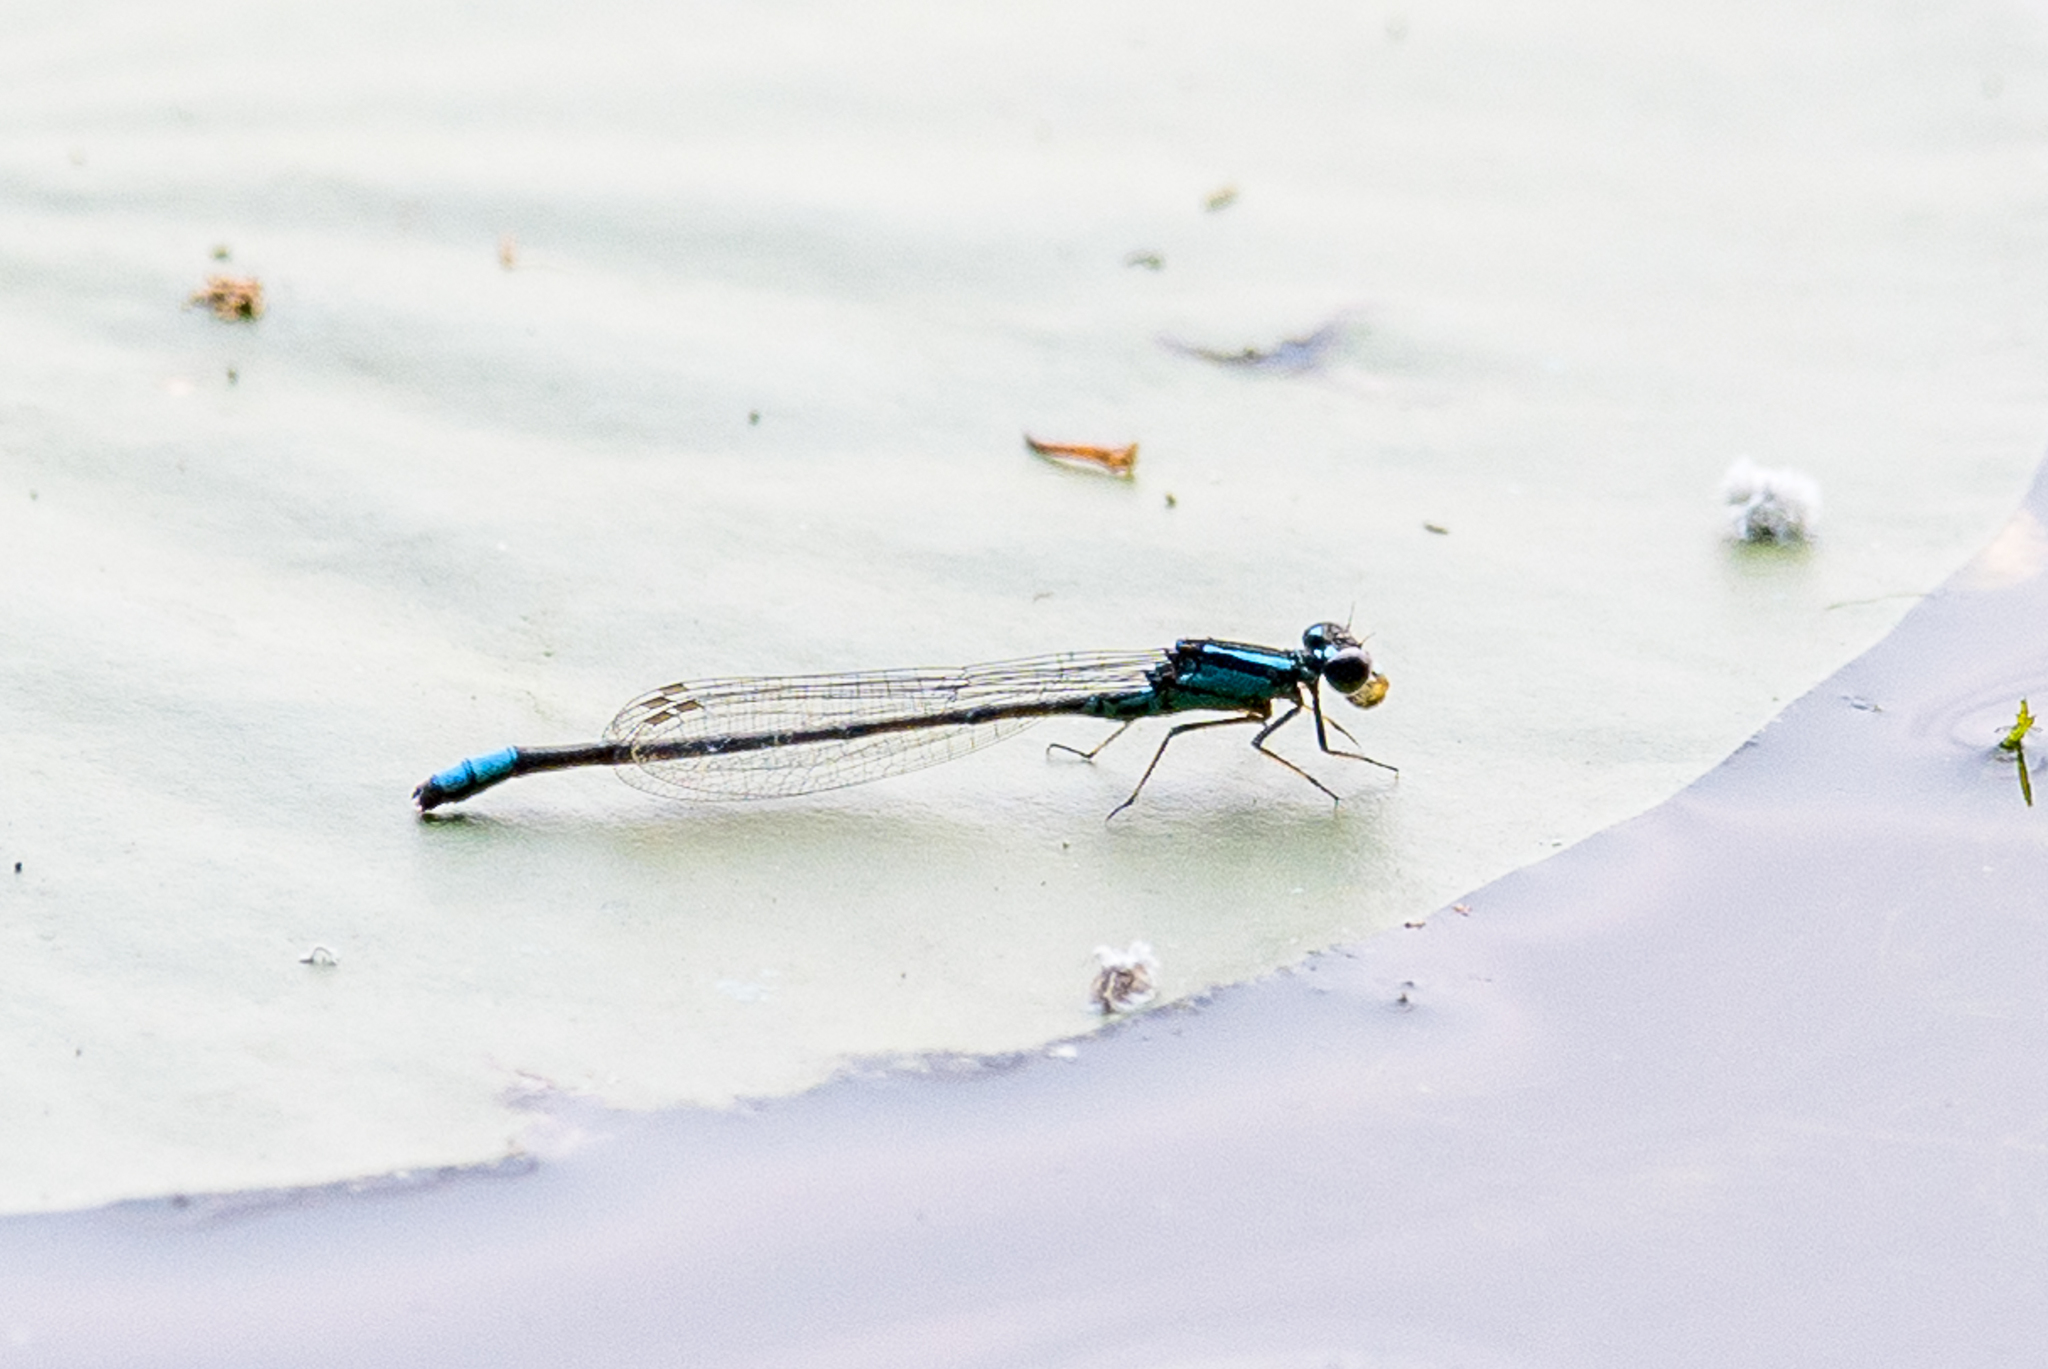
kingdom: Animalia
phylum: Arthropoda
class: Insecta
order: Odonata
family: Coenagrionidae
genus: Enallagma
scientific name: Enallagma geminatum
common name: Skimming bluet
